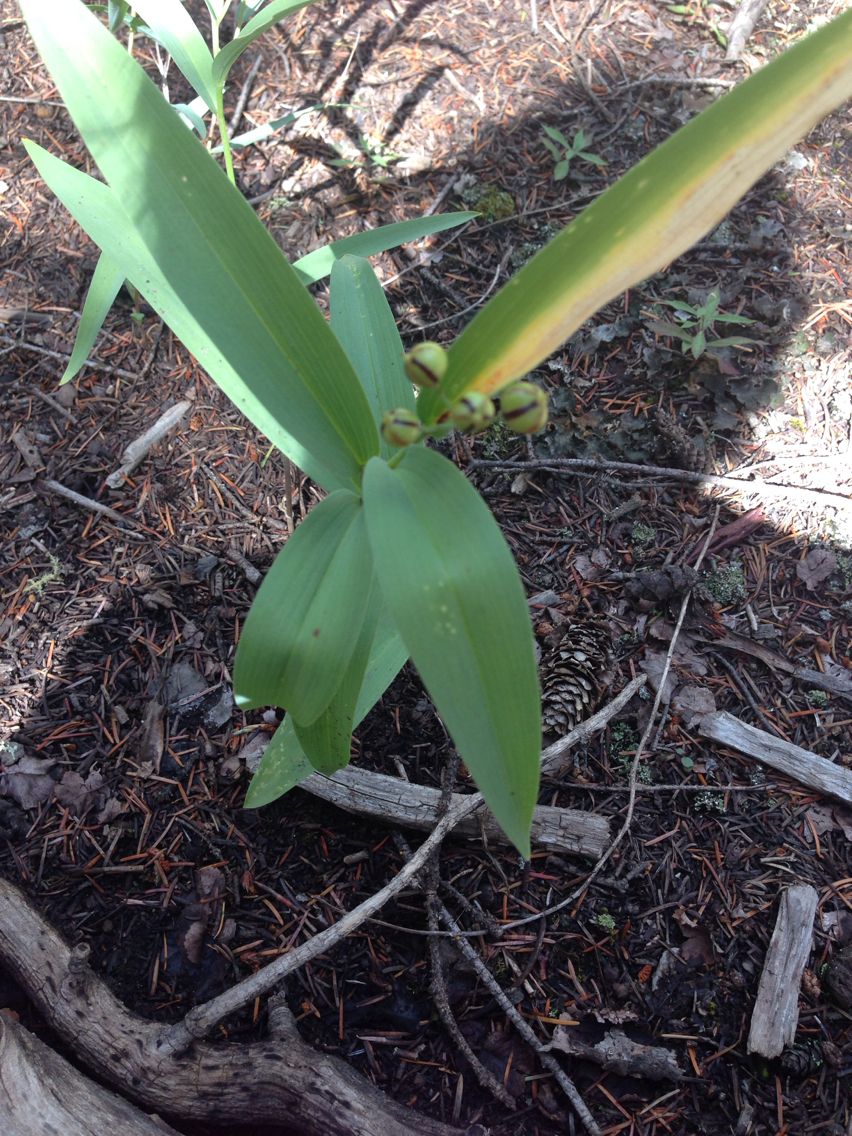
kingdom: Plantae
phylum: Tracheophyta
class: Liliopsida
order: Asparagales
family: Asparagaceae
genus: Maianthemum
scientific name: Maianthemum stellatum
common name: Little false solomon's seal
